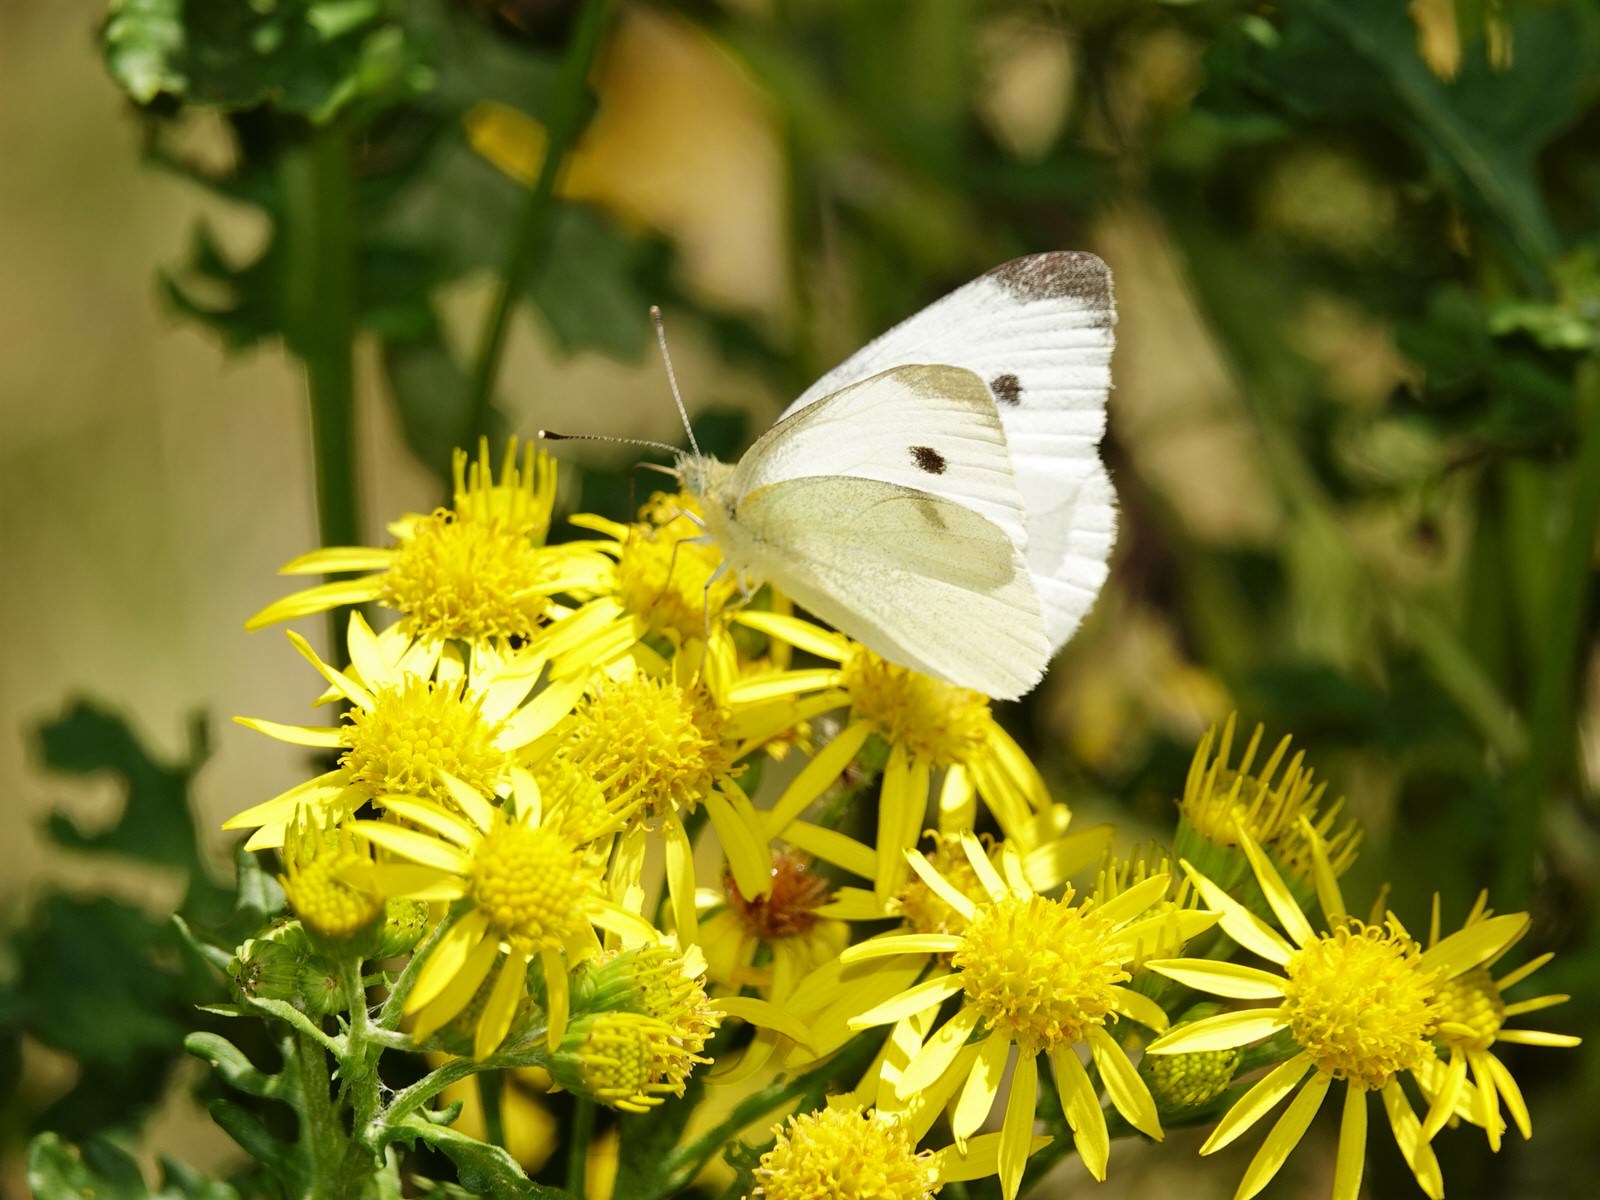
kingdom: Animalia
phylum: Arthropoda
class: Insecta
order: Lepidoptera
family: Pieridae
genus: Pieris
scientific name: Pieris rapae
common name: Small white
